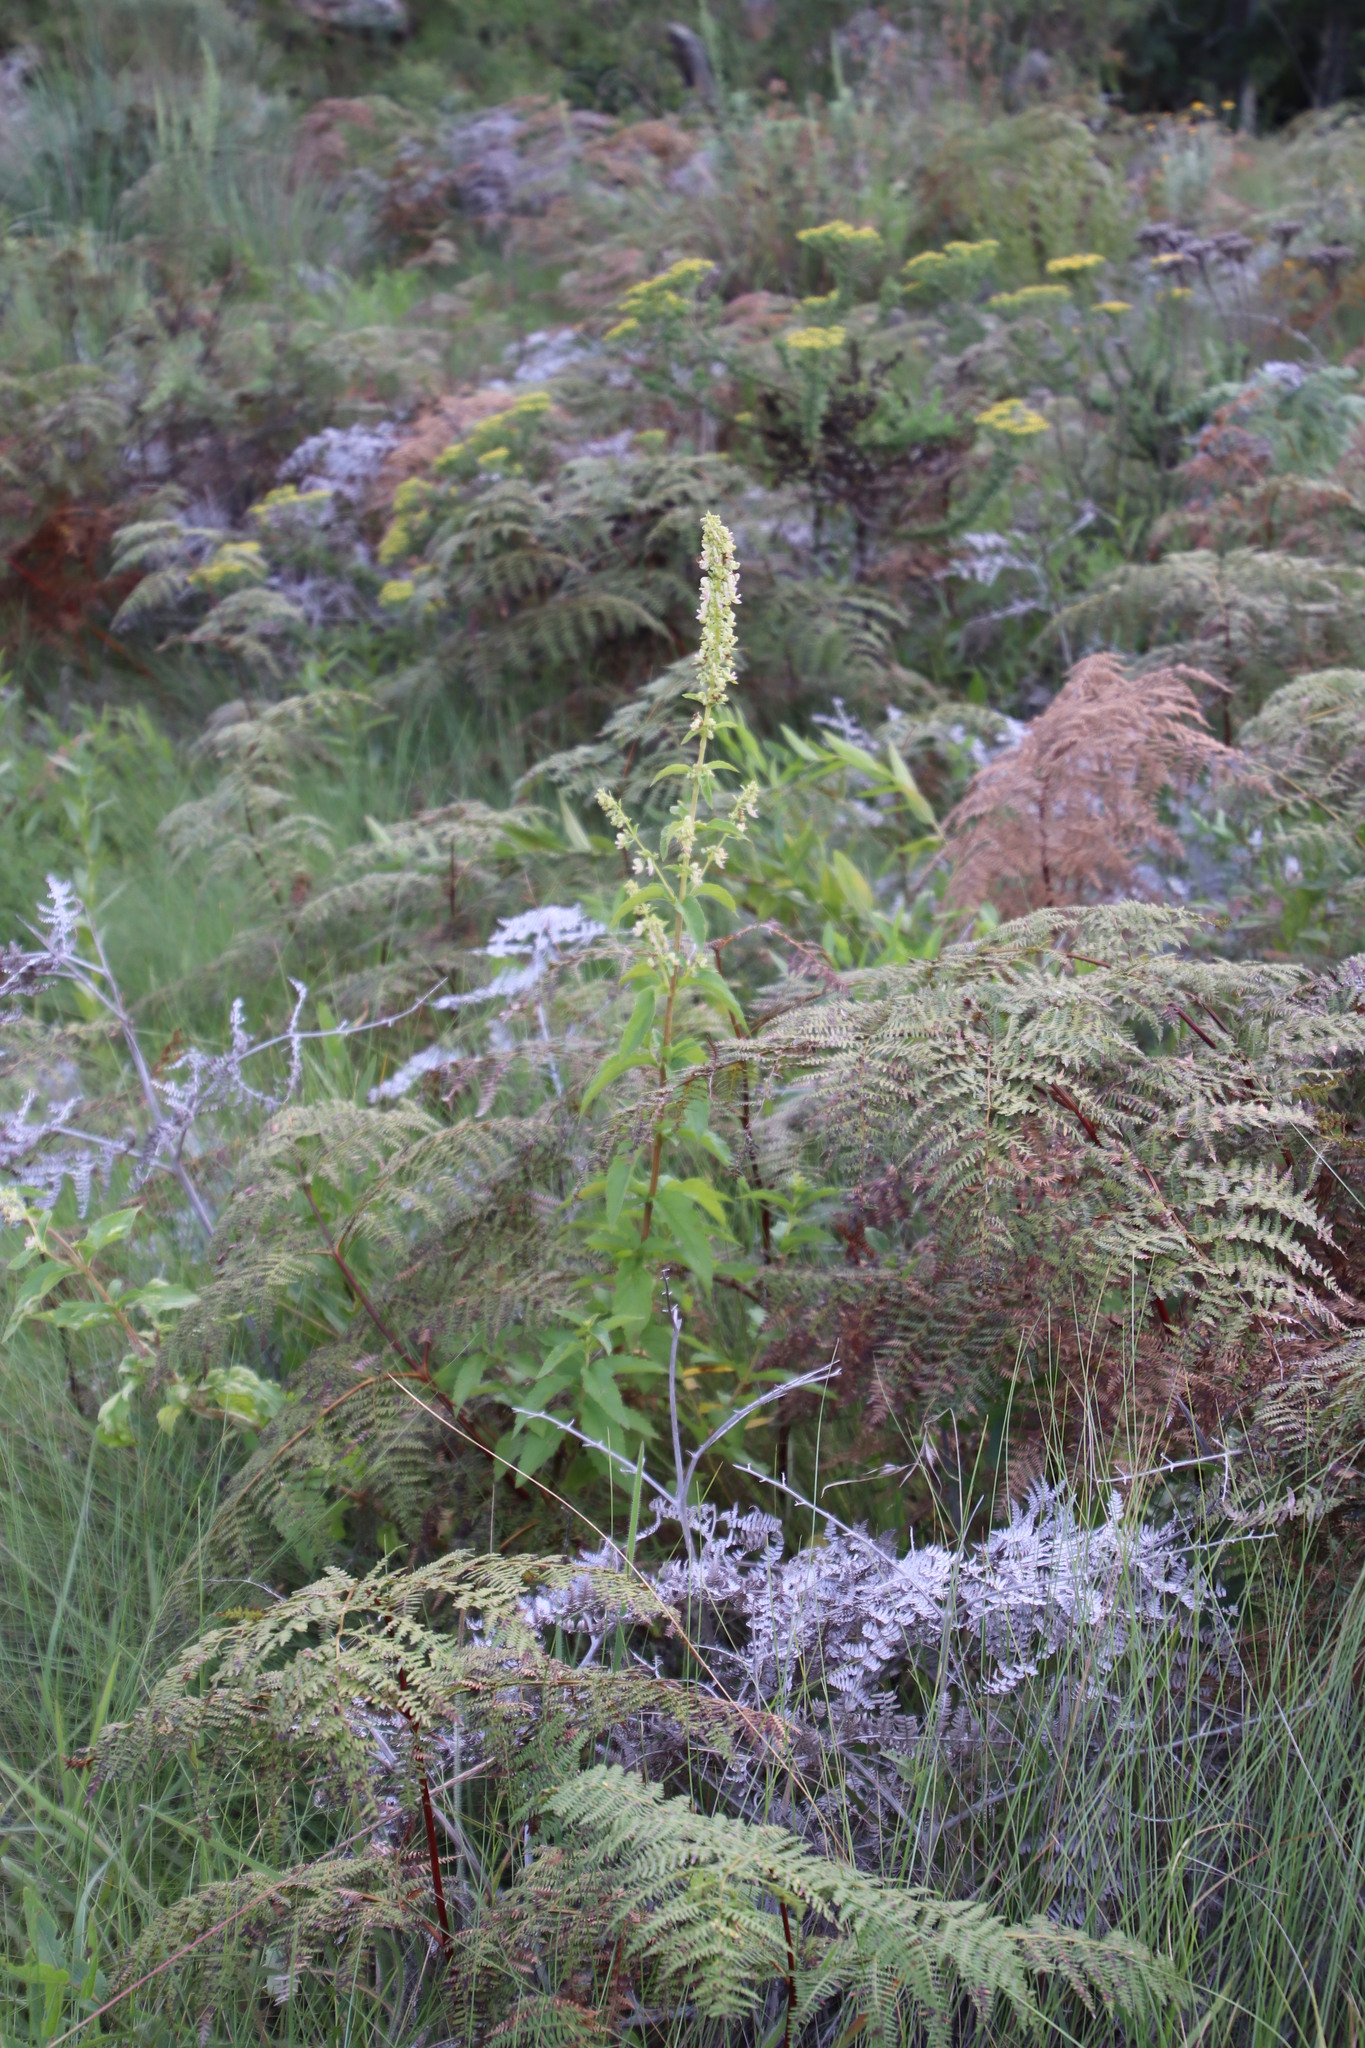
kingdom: Plantae
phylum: Tracheophyta
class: Magnoliopsida
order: Lamiales
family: Lamiaceae
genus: Coleus
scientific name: Coleus calycinus
